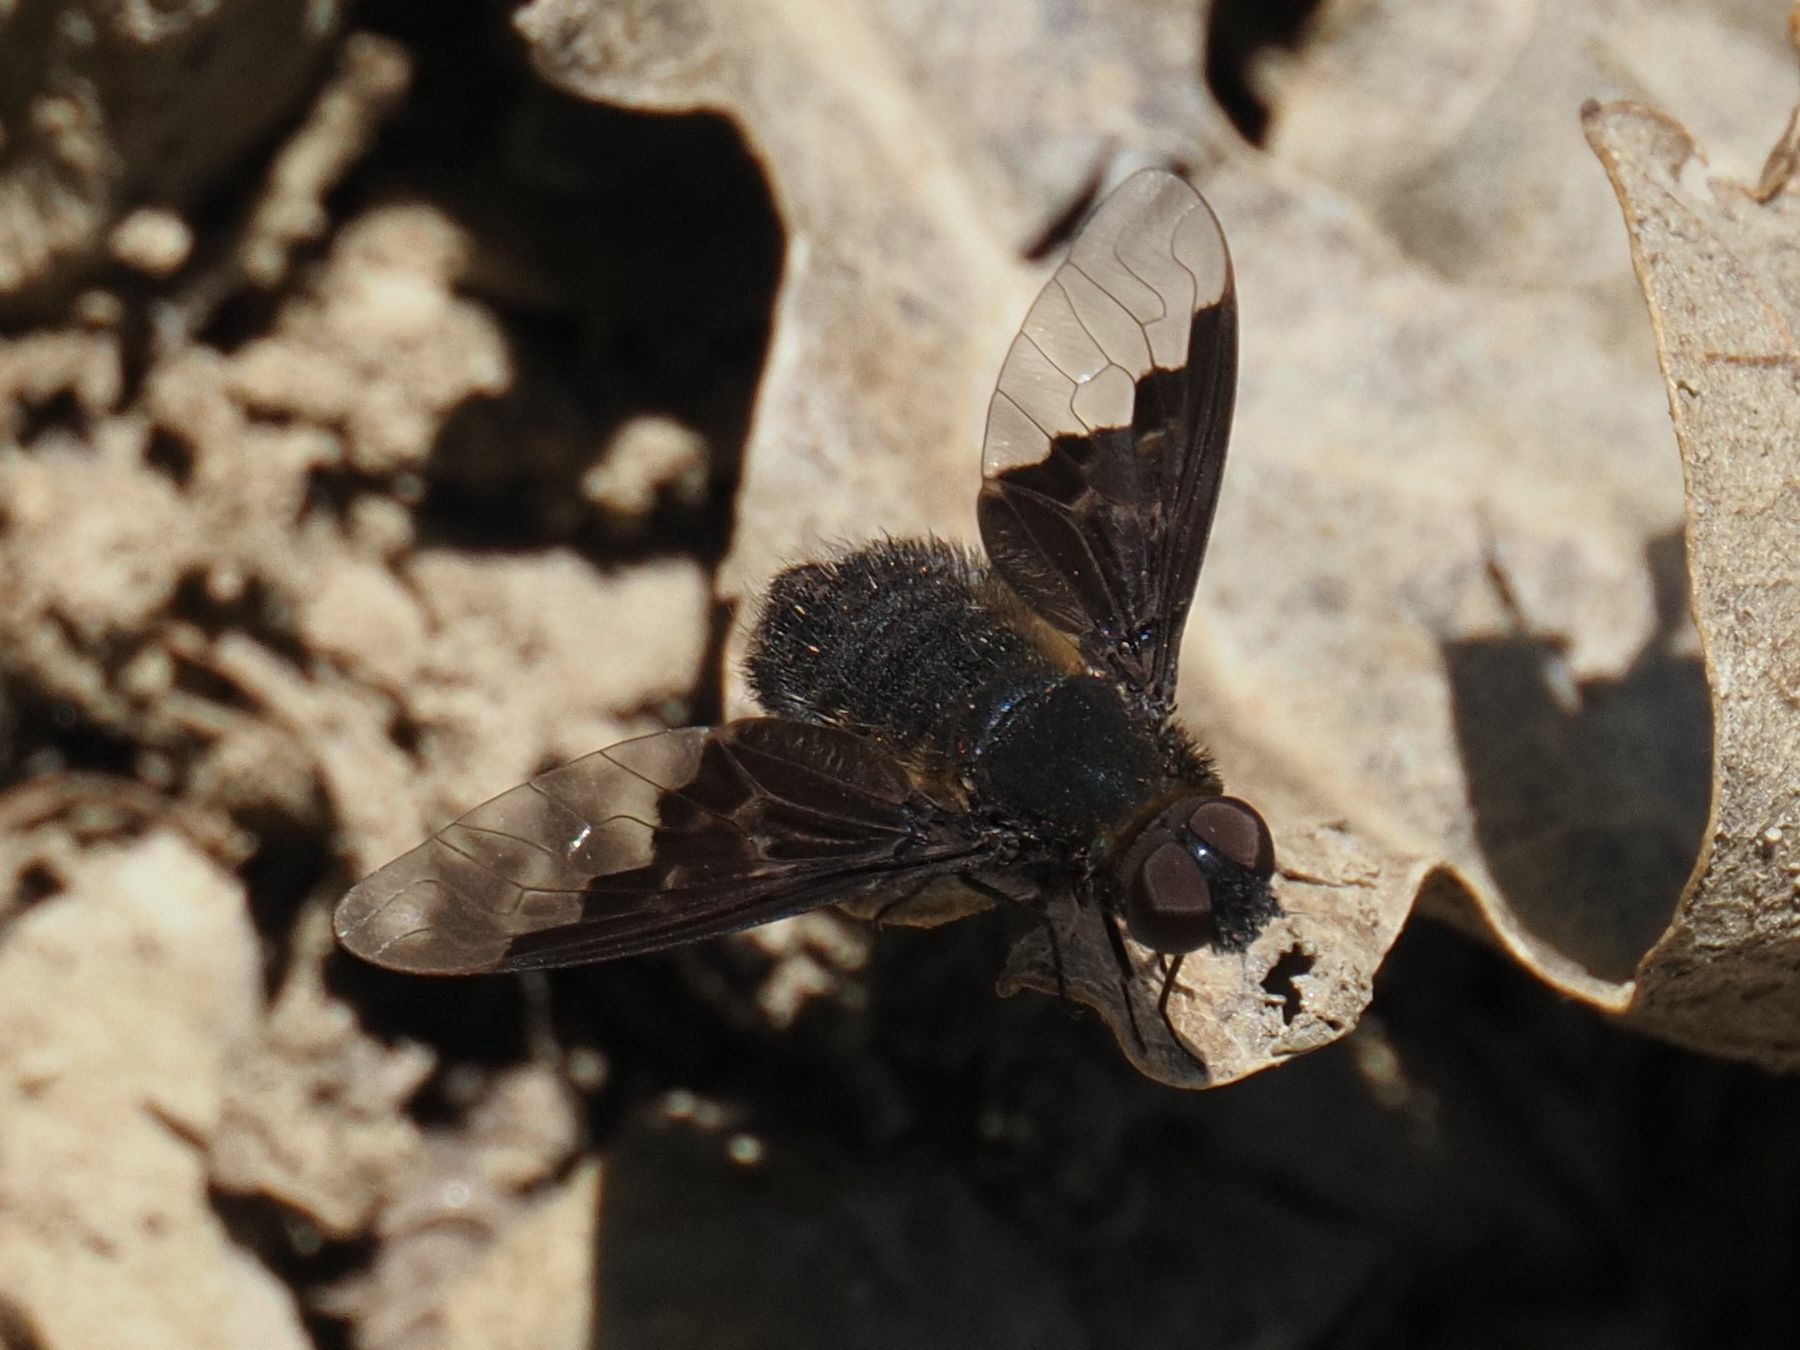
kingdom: Animalia
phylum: Arthropoda
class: Insecta
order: Diptera
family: Bombyliidae
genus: Hemipenthes
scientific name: Hemipenthes morio
